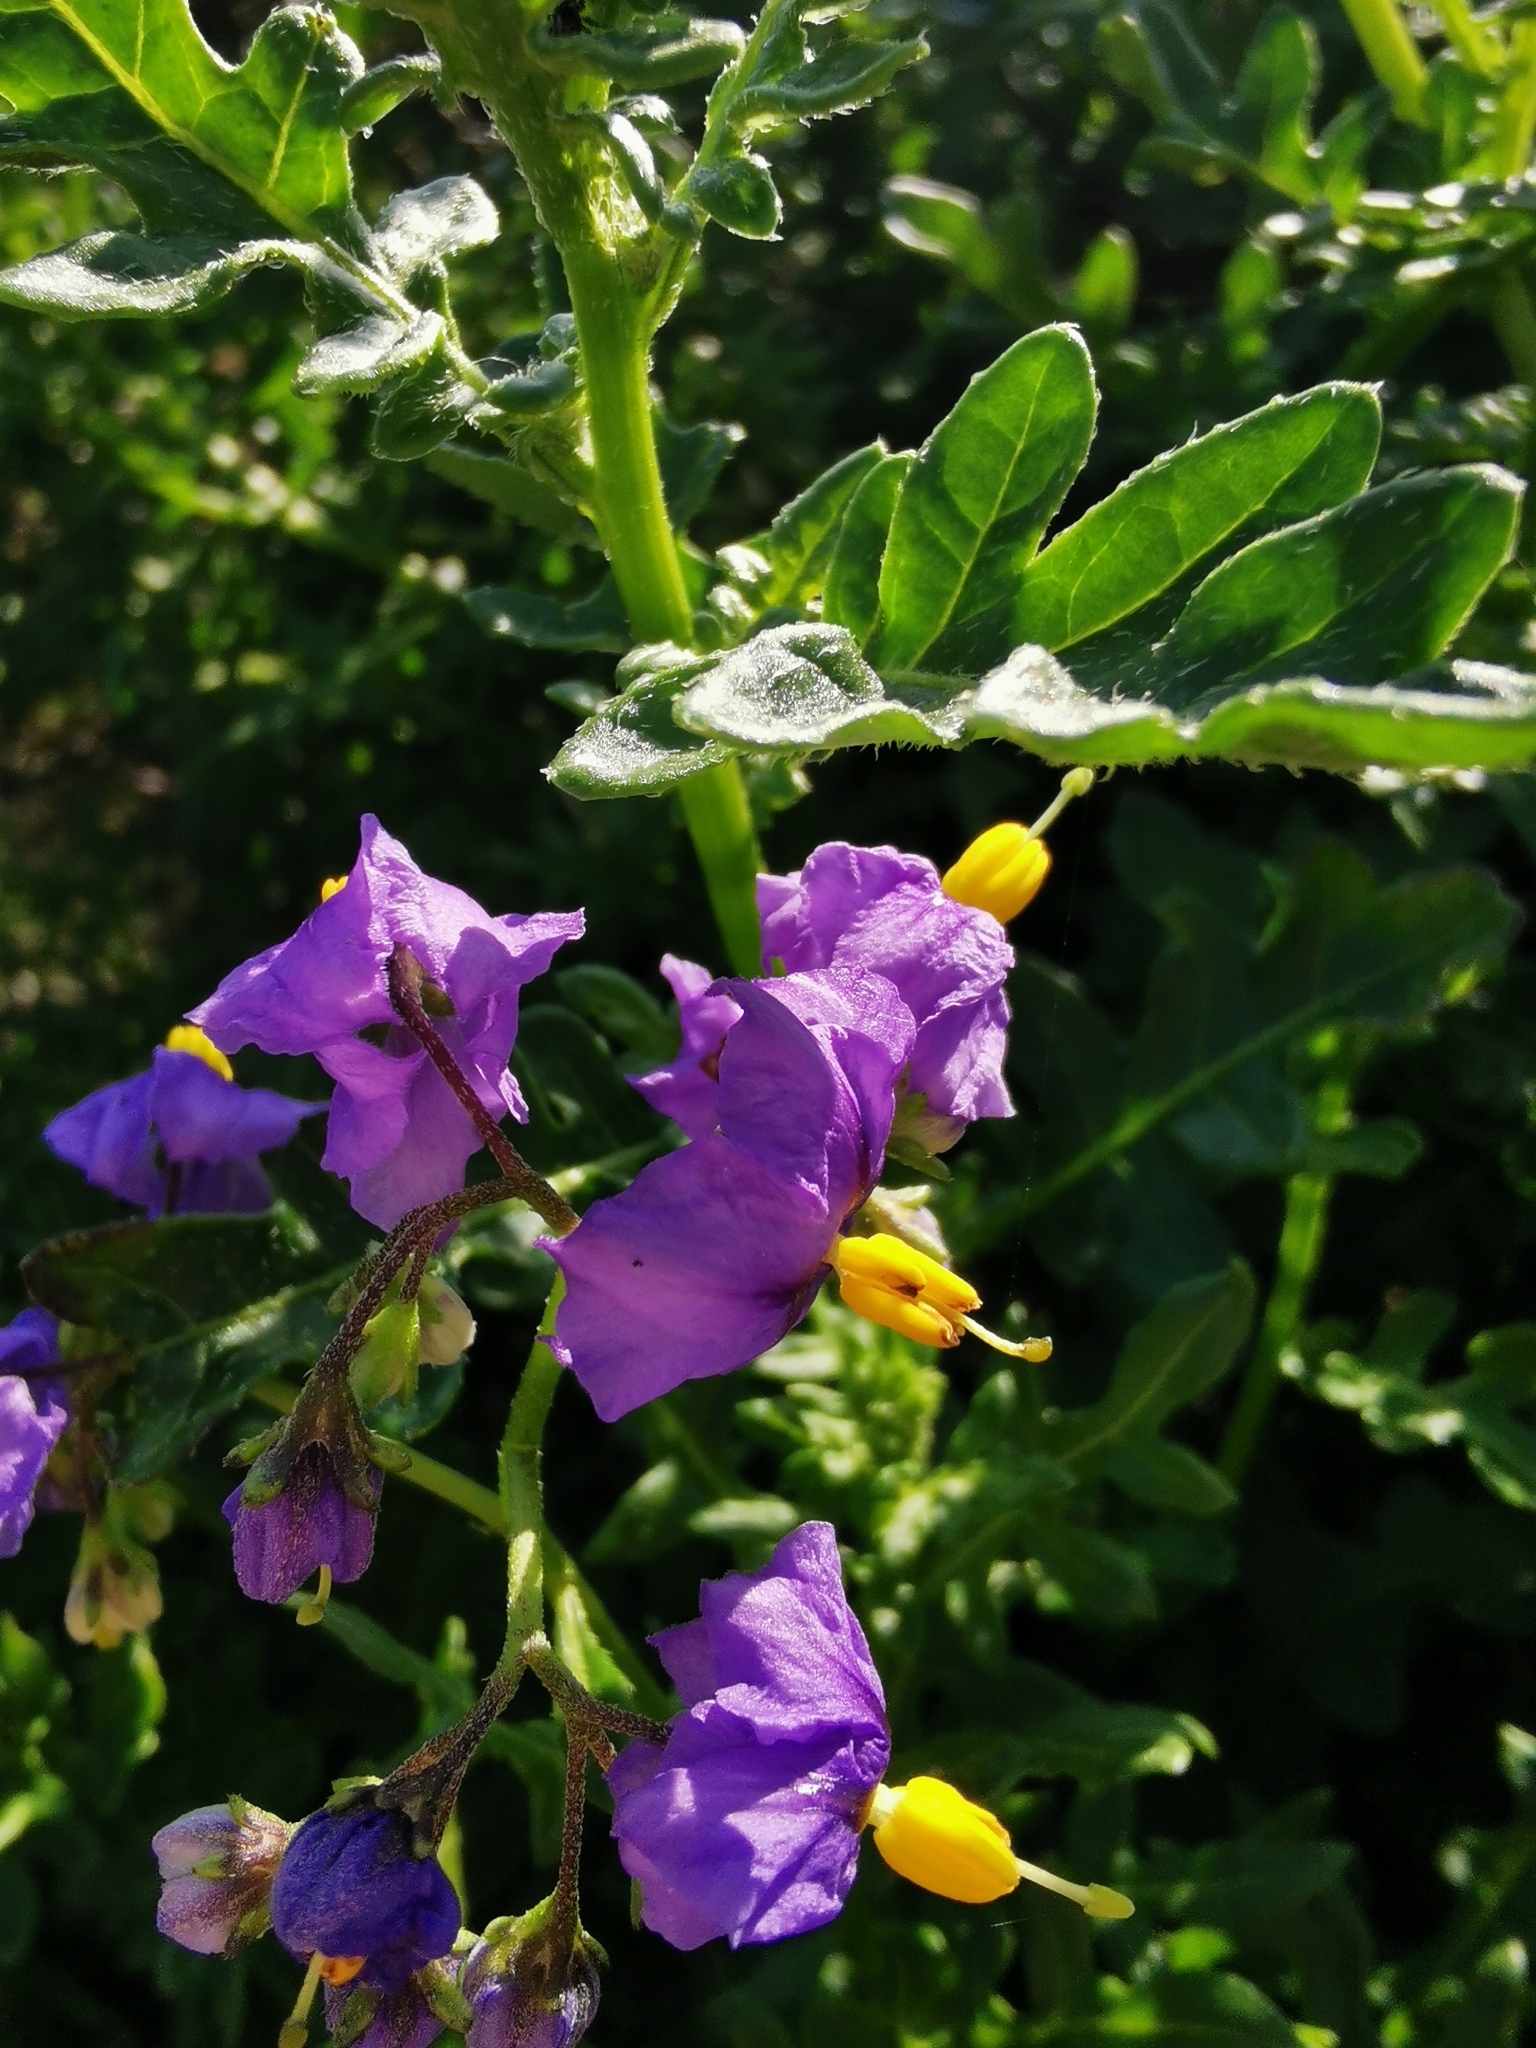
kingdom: Plantae
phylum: Tracheophyta
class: Magnoliopsida
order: Solanales
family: Solanaceae
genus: Solanum
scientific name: Solanum pinnatum
